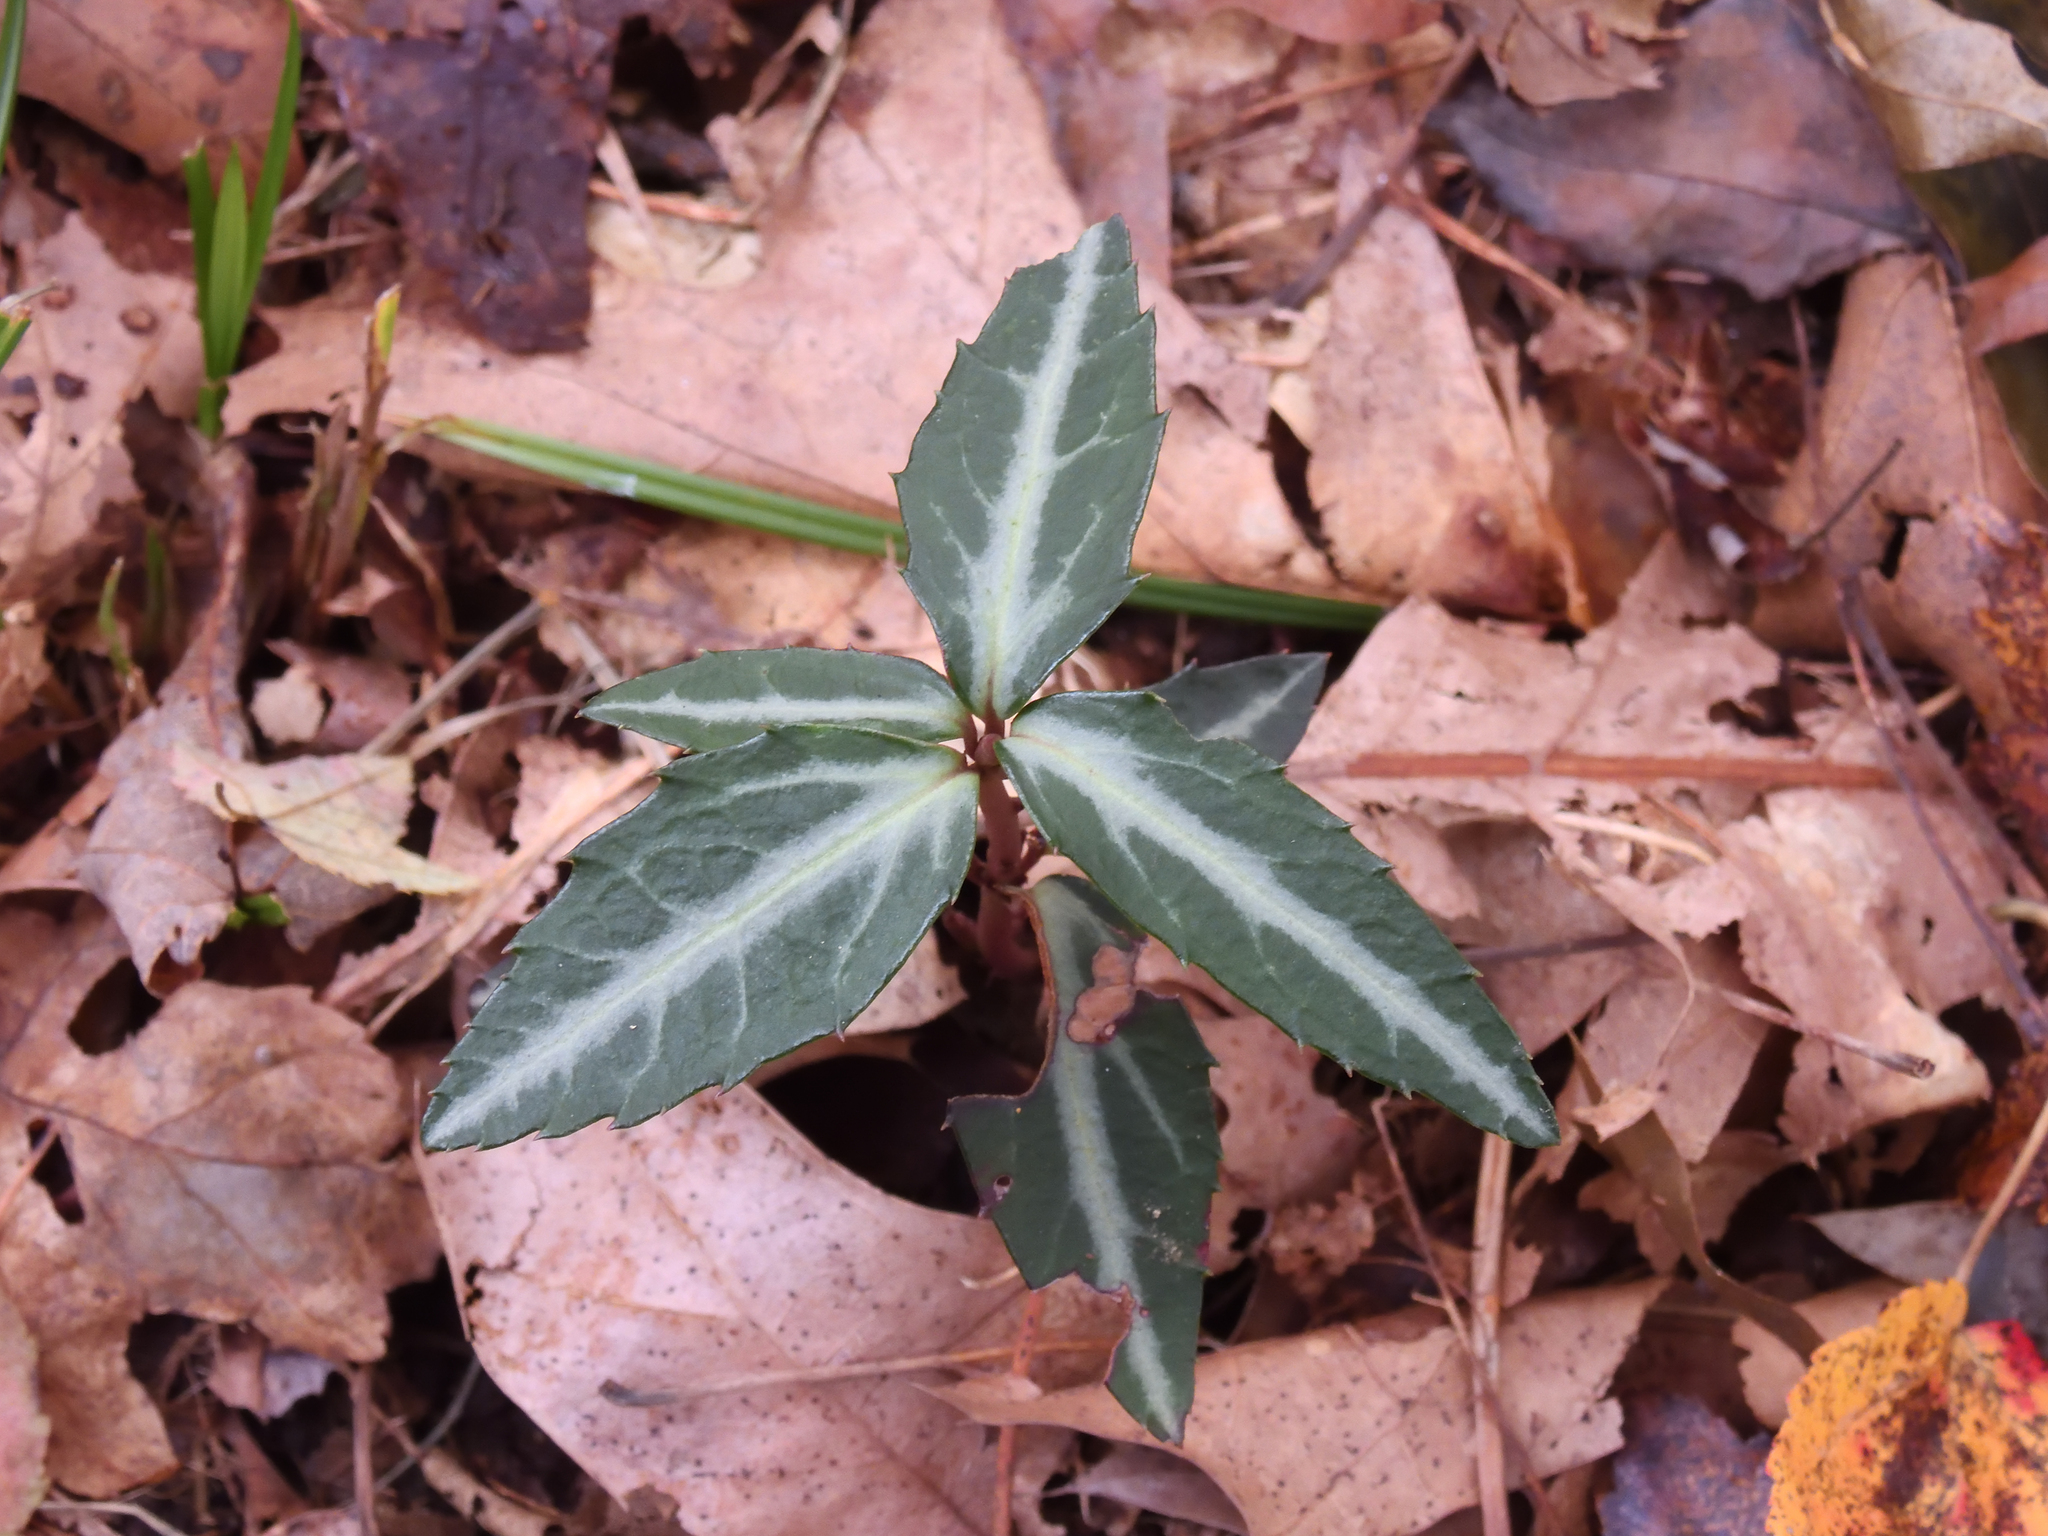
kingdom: Plantae
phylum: Tracheophyta
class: Magnoliopsida
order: Ericales
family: Ericaceae
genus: Chimaphila
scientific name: Chimaphila maculata
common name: Spotted pipsissewa
